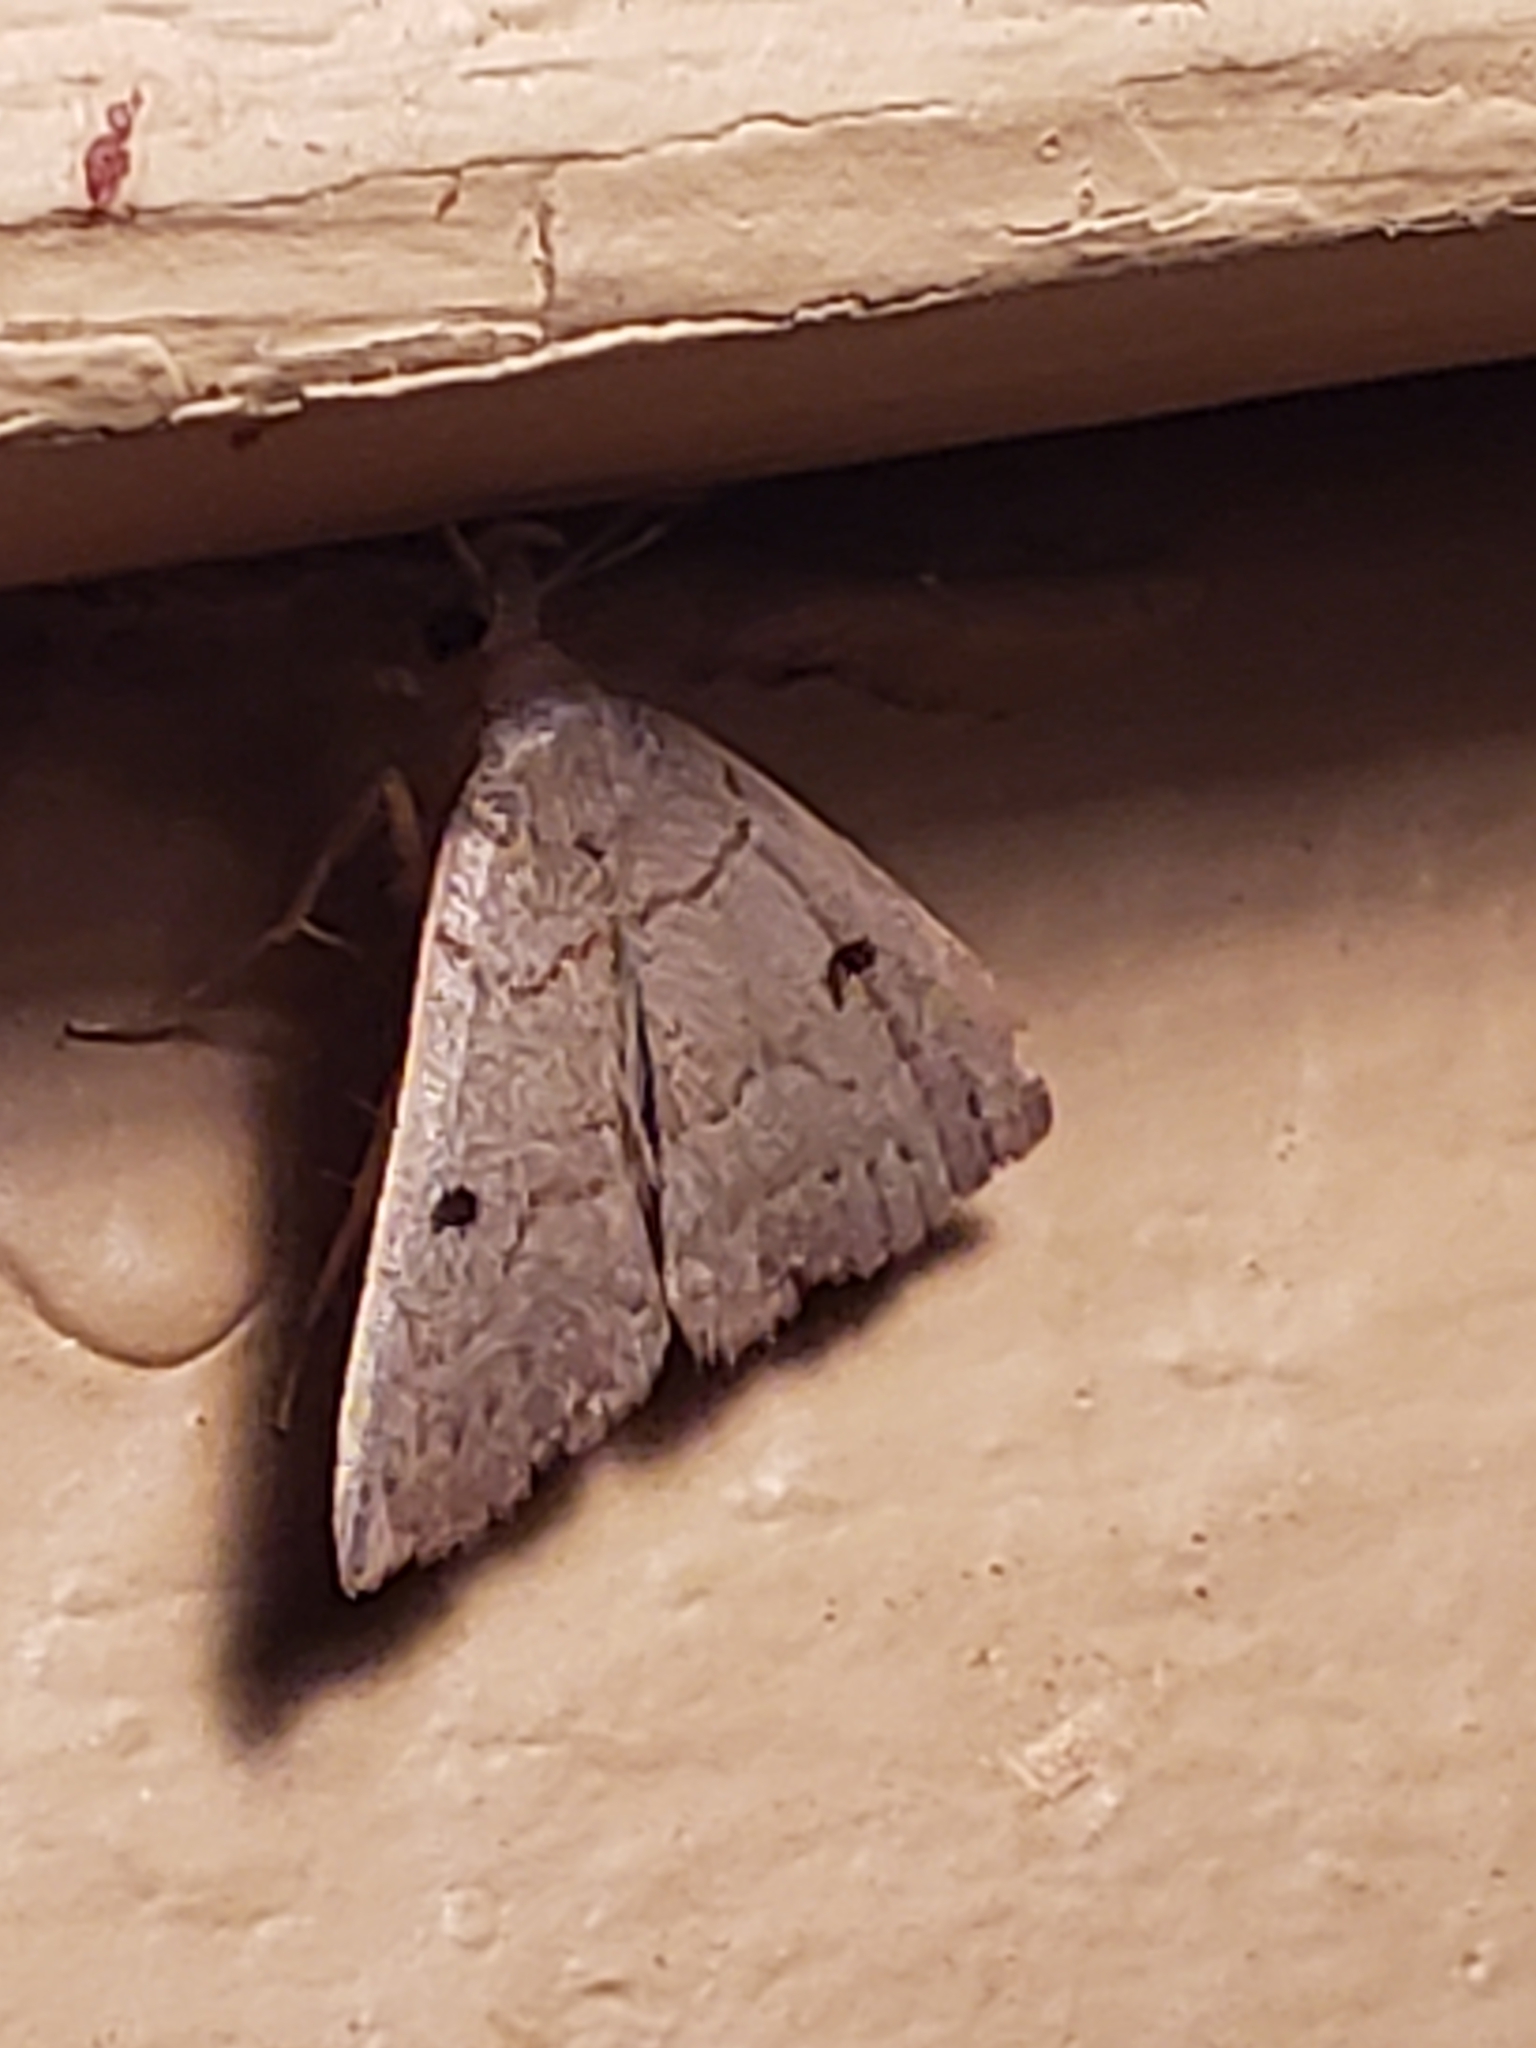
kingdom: Animalia
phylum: Arthropoda
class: Insecta
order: Lepidoptera
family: Erebidae
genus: Macrochilo
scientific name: Macrochilo morbidalis
